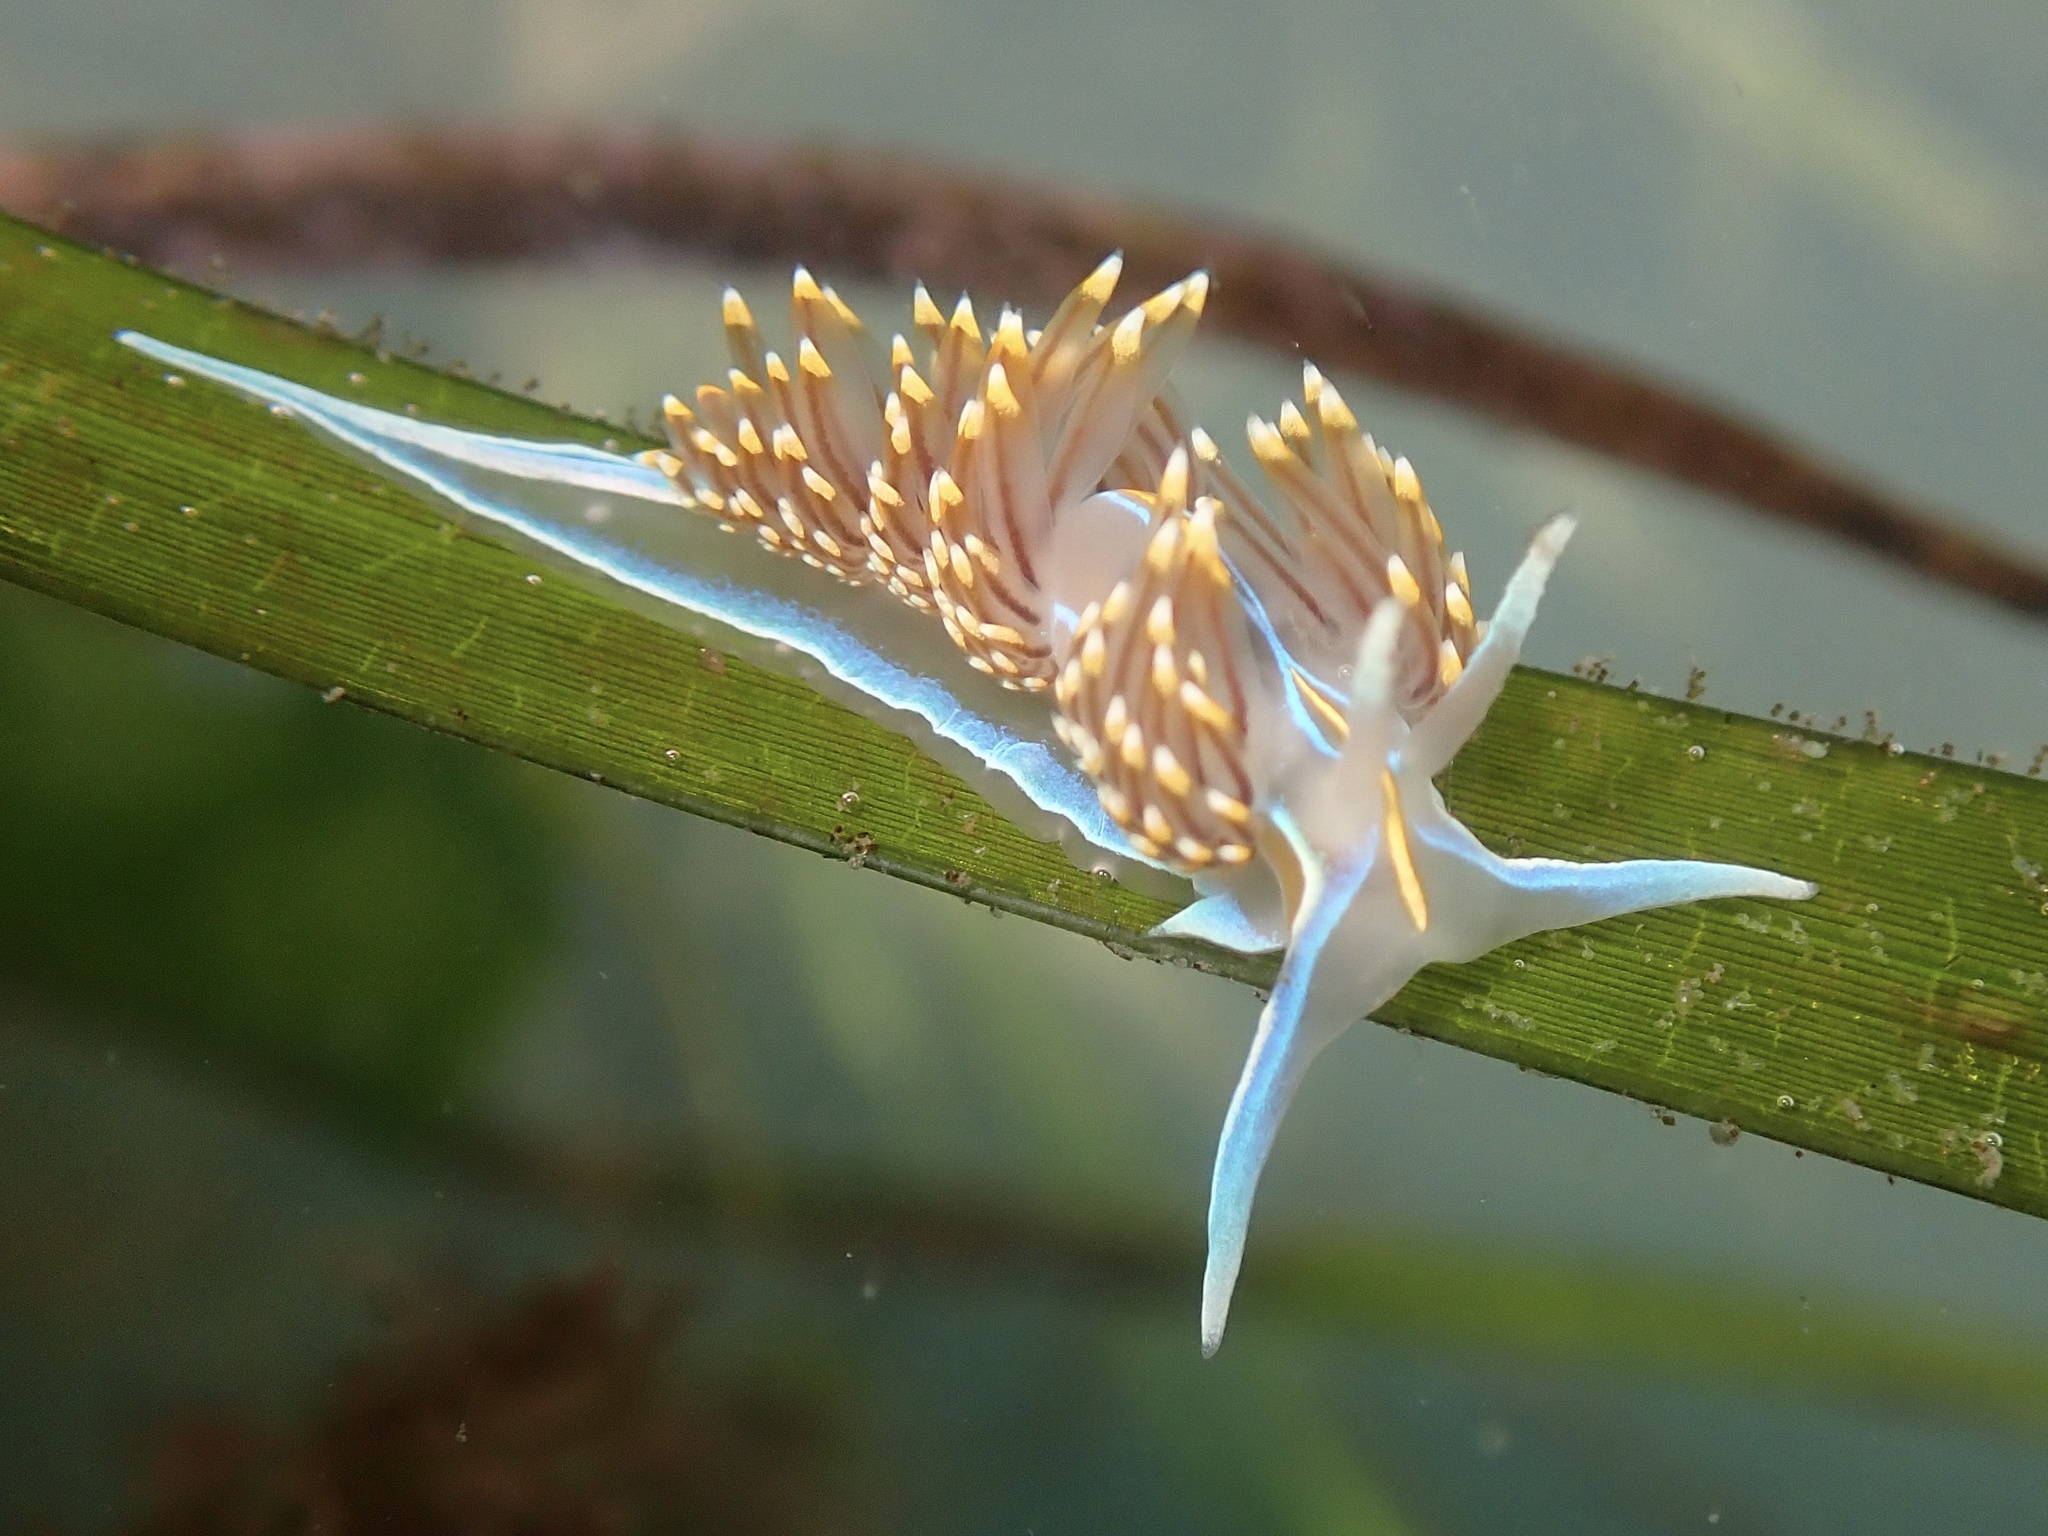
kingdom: Animalia
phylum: Mollusca
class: Gastropoda
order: Nudibranchia
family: Myrrhinidae
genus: Hermissenda
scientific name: Hermissenda opalescens
